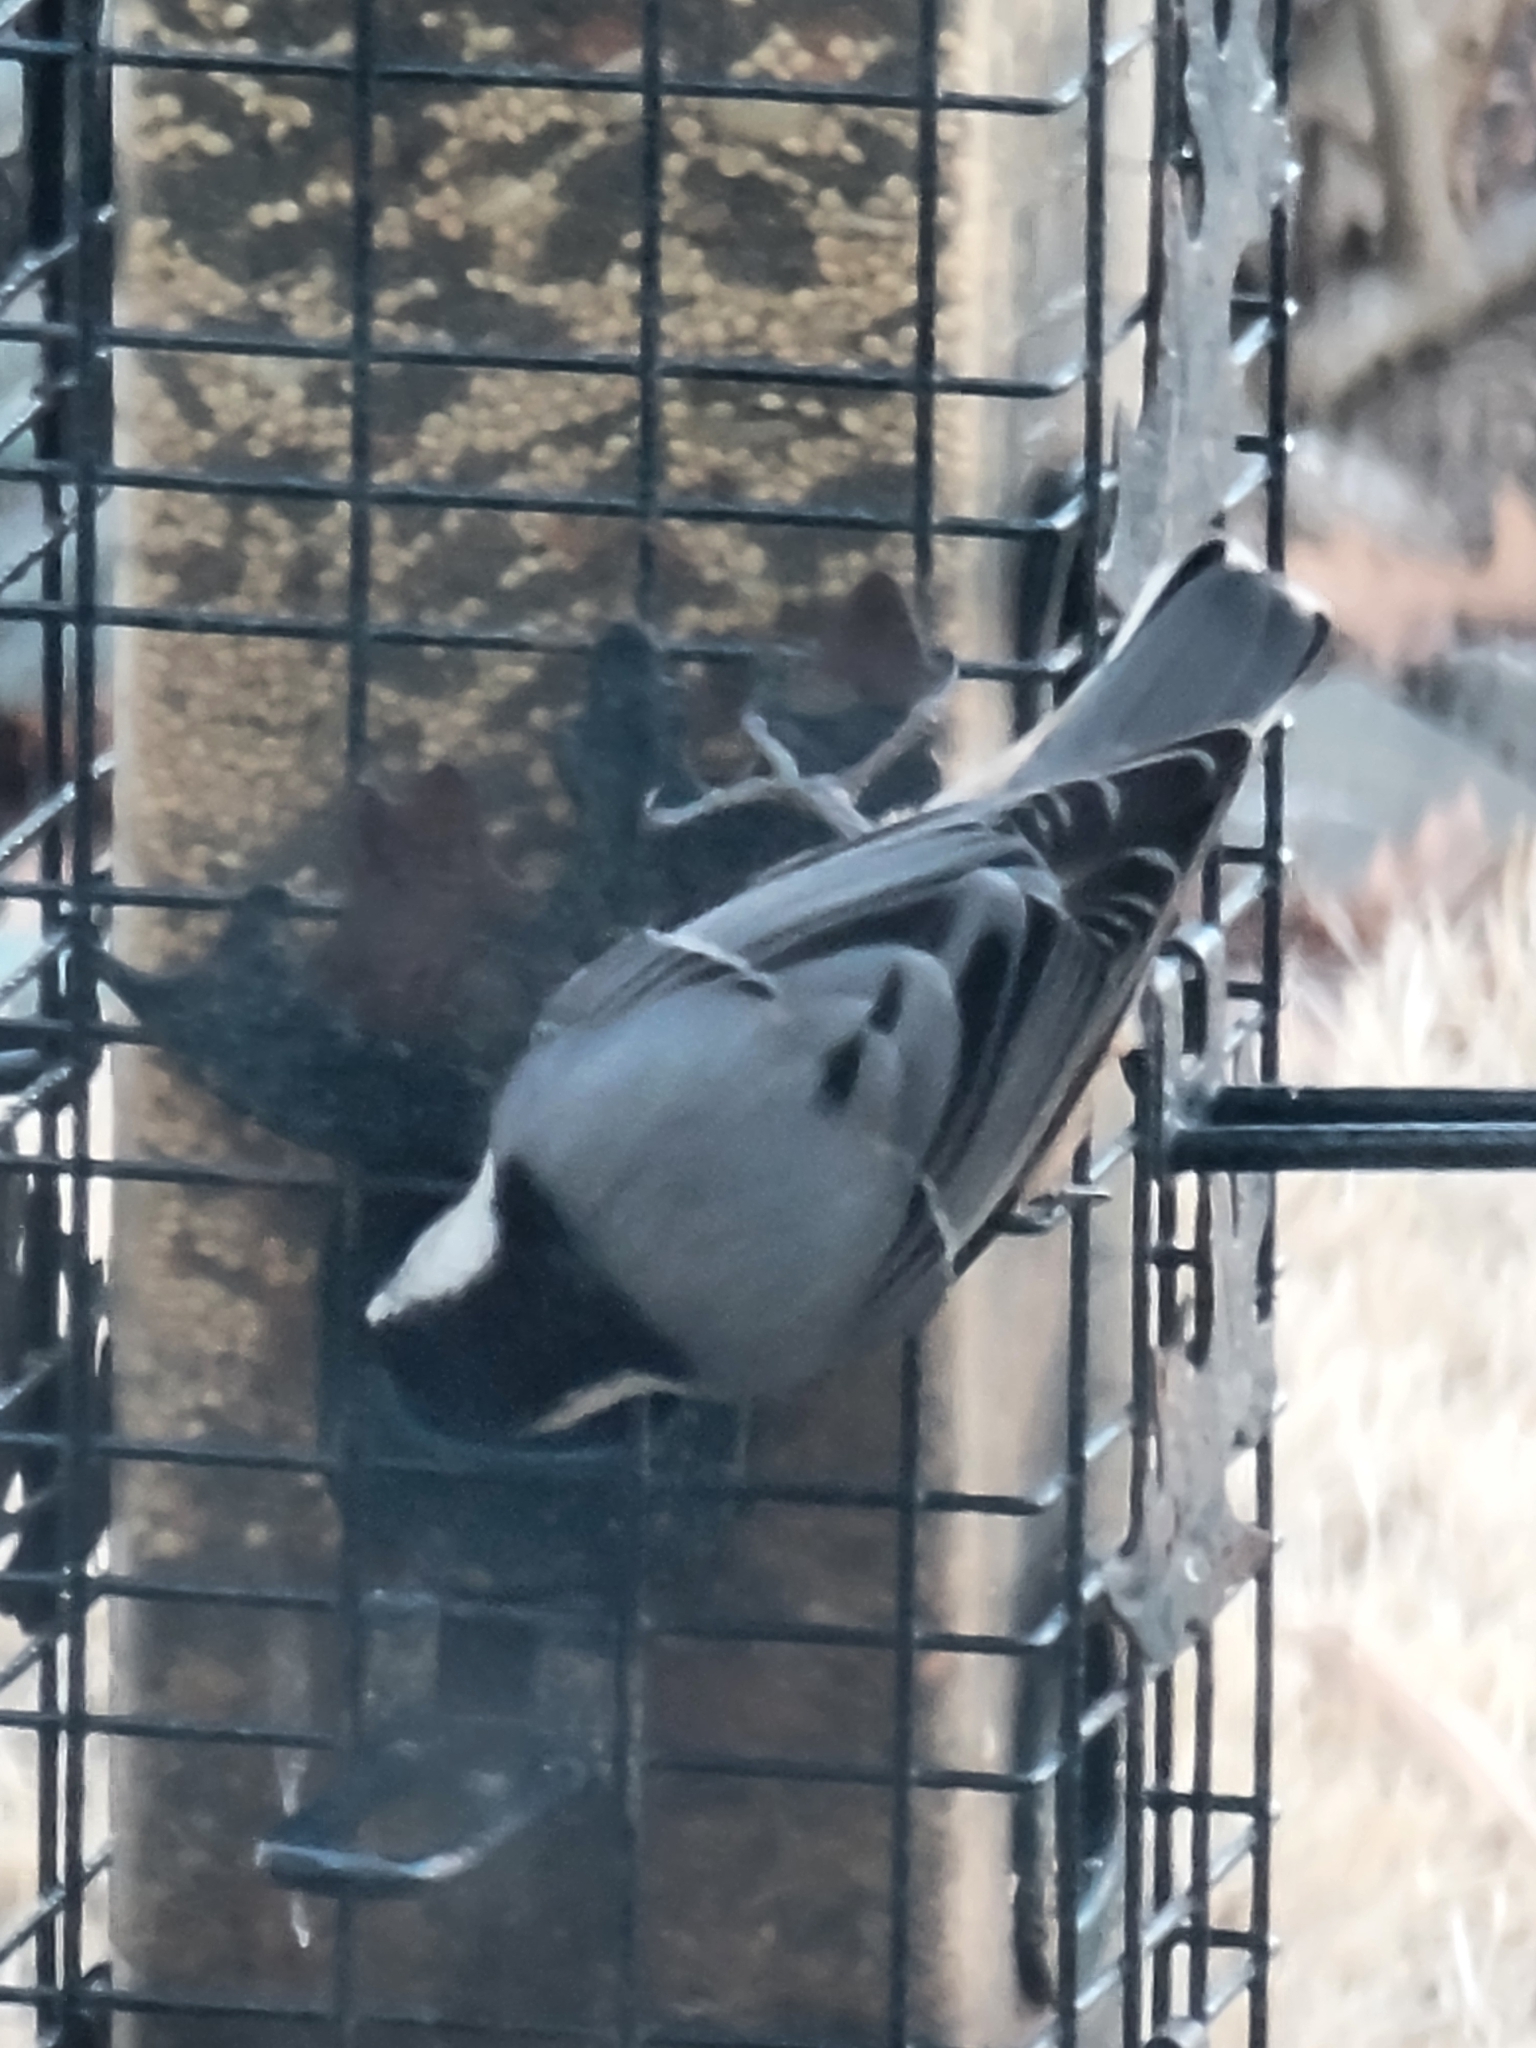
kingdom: Animalia
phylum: Chordata
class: Aves
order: Passeriformes
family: Sittidae
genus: Sitta
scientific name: Sitta carolinensis
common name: White-breasted nuthatch
